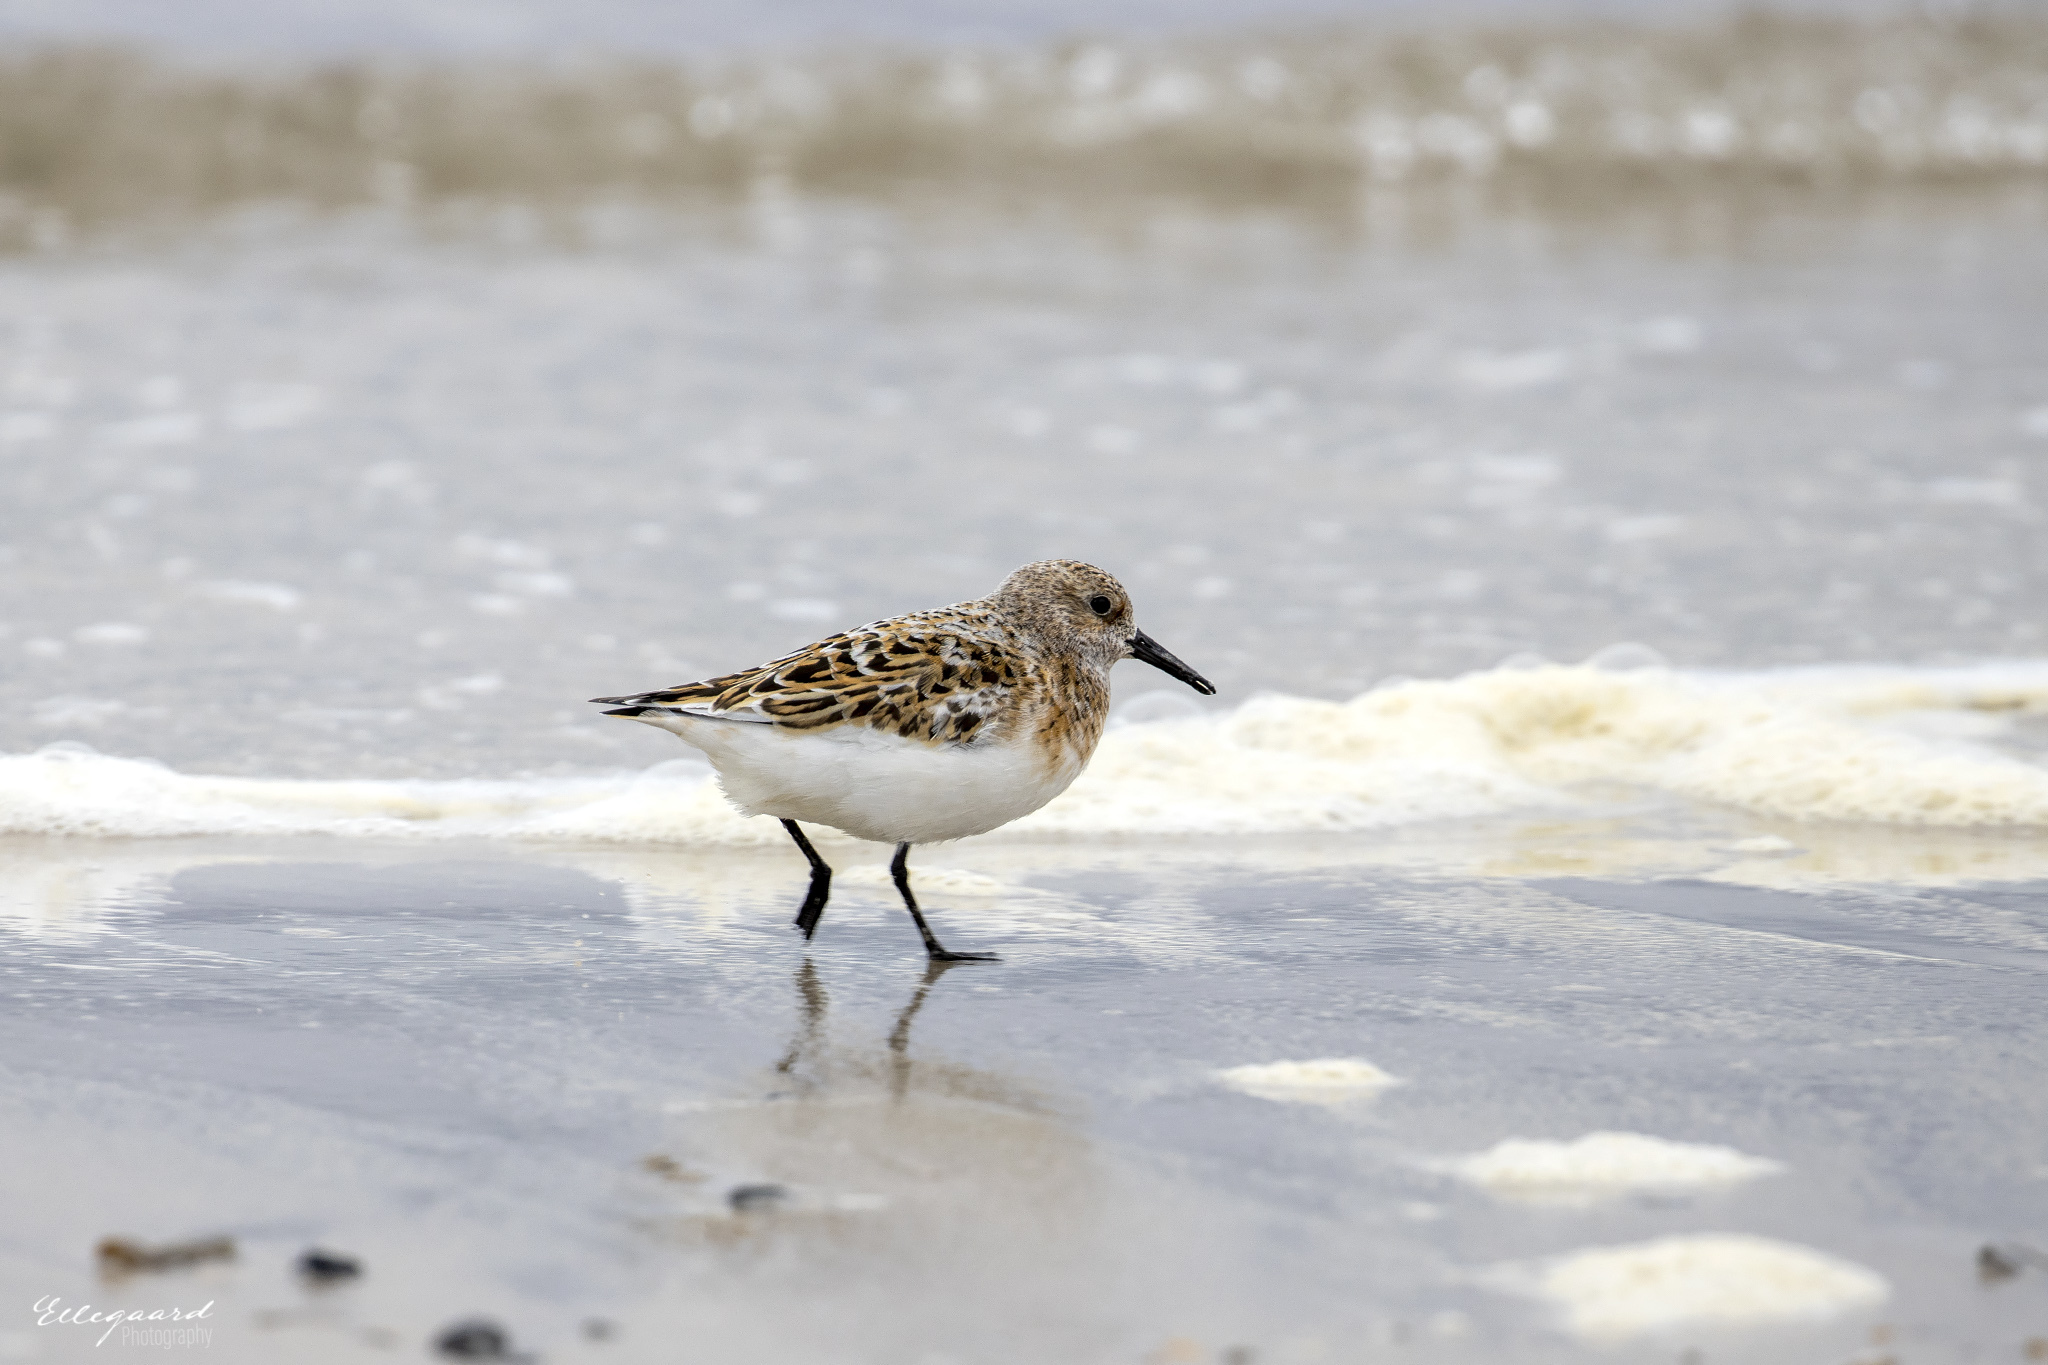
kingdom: Animalia
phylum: Chordata
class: Aves
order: Charadriiformes
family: Scolopacidae
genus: Calidris
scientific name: Calidris alba
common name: Sanderling
